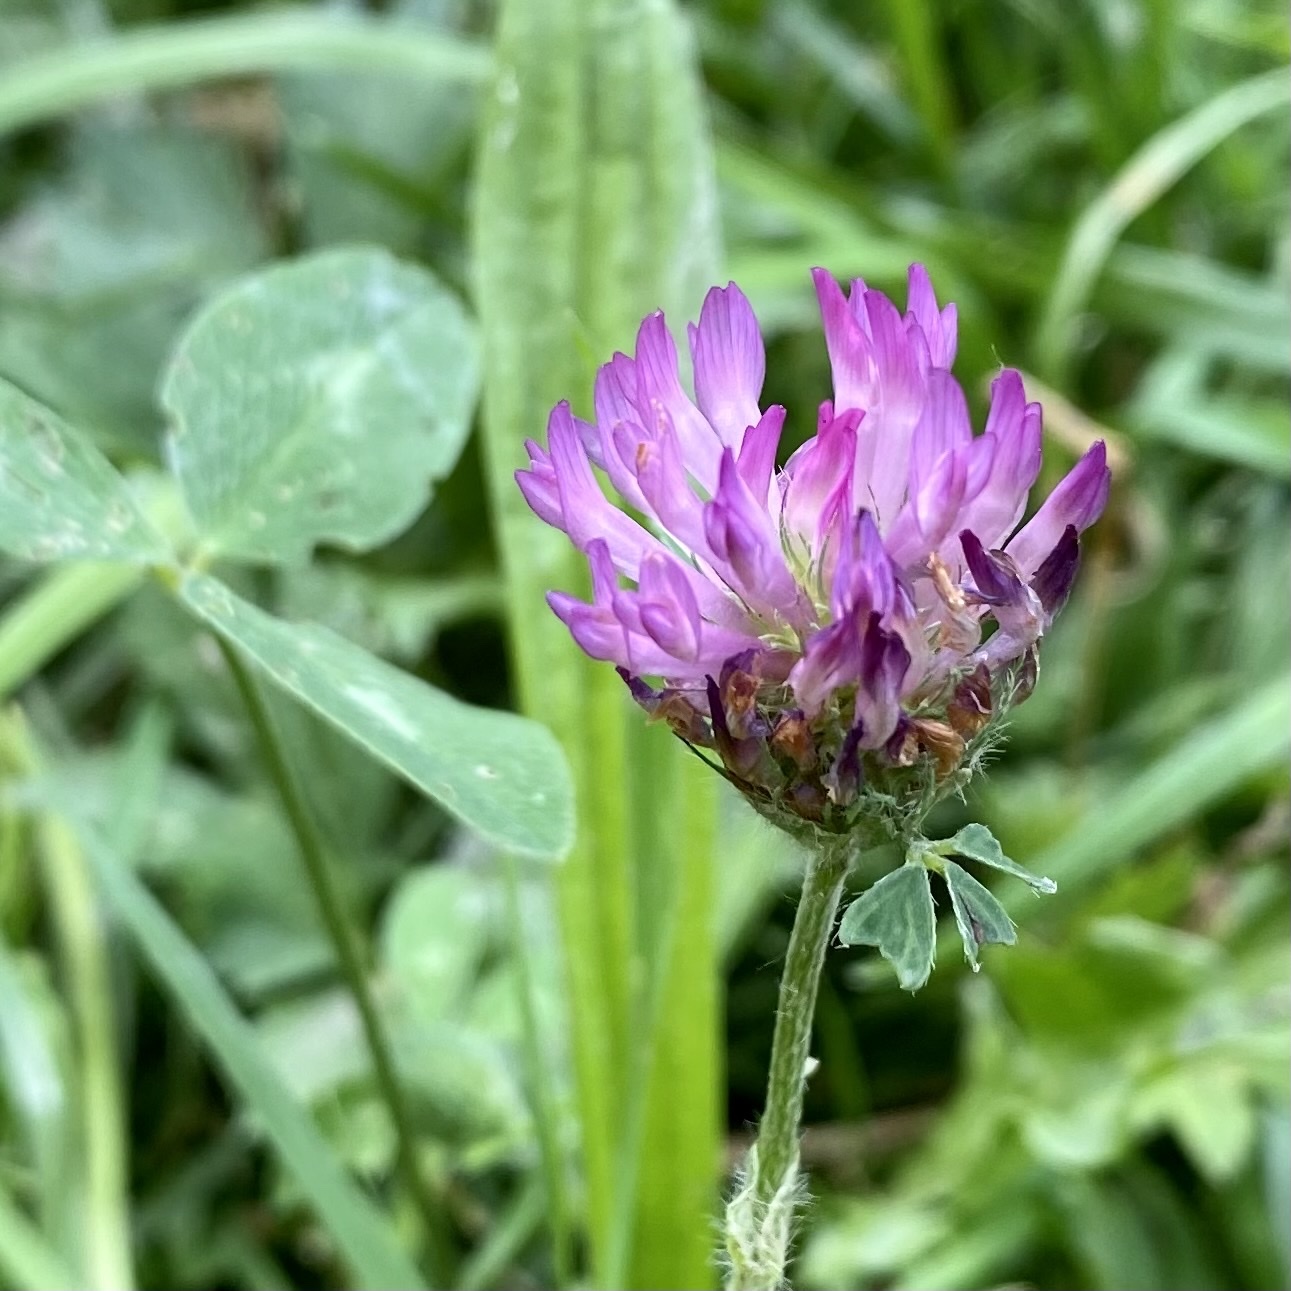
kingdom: Plantae
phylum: Tracheophyta
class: Magnoliopsida
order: Fabales
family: Fabaceae
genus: Trifolium
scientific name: Trifolium pratense
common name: Red clover
